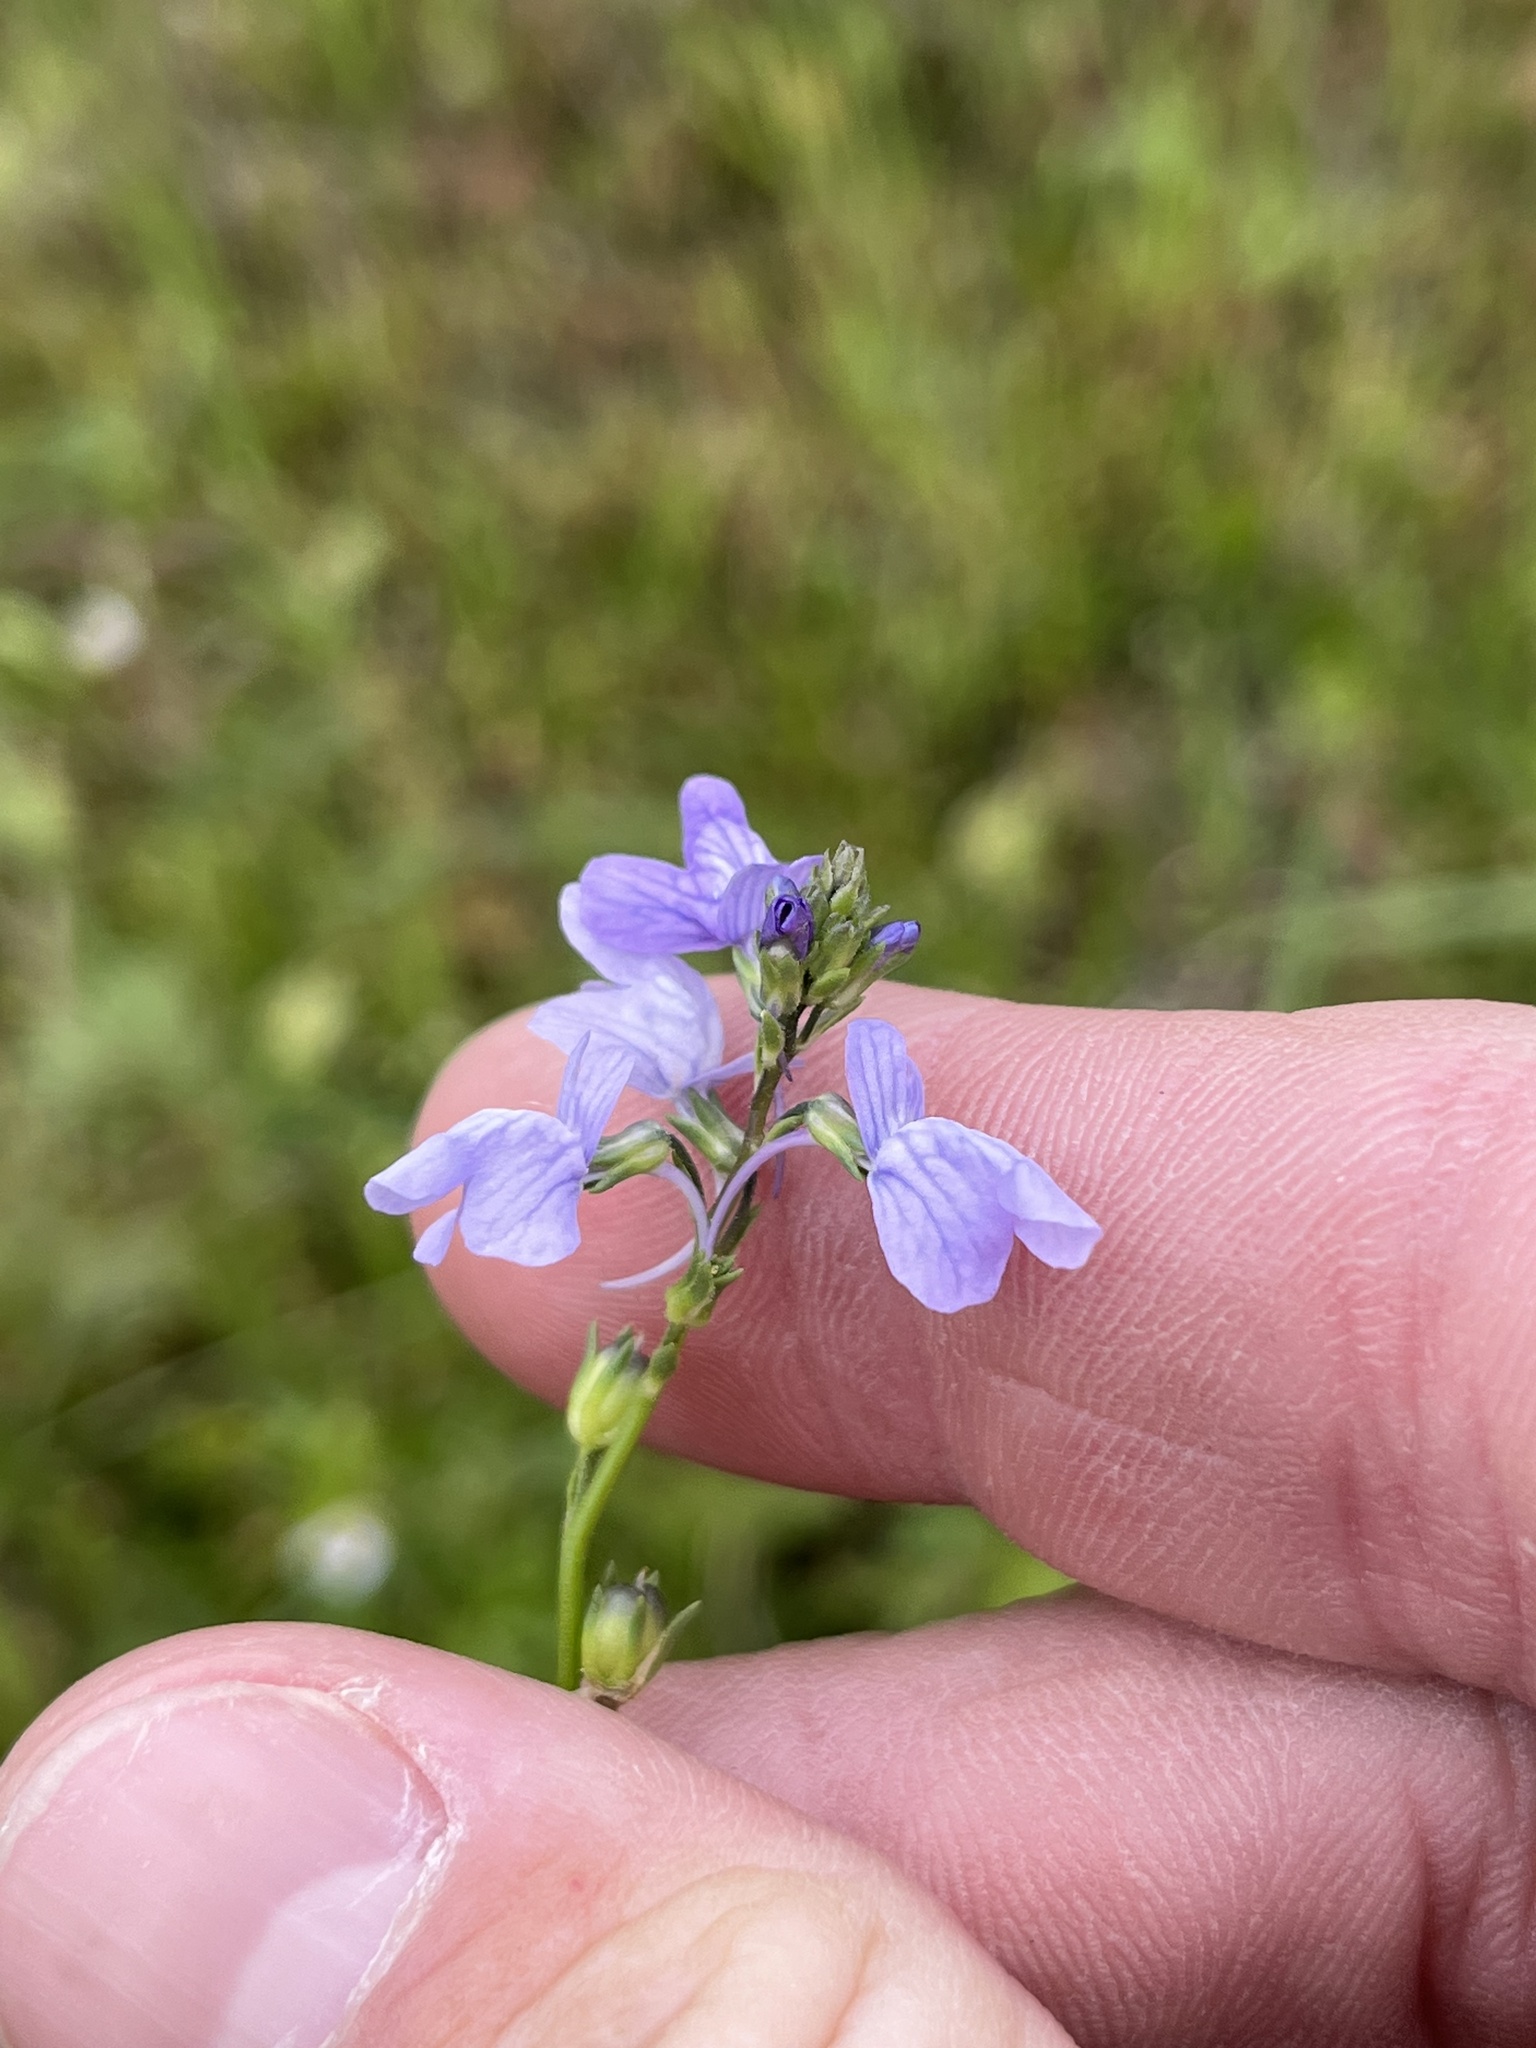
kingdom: Plantae
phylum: Tracheophyta
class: Magnoliopsida
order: Lamiales
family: Plantaginaceae
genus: Nuttallanthus
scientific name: Nuttallanthus texanus
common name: Texas toadflax
